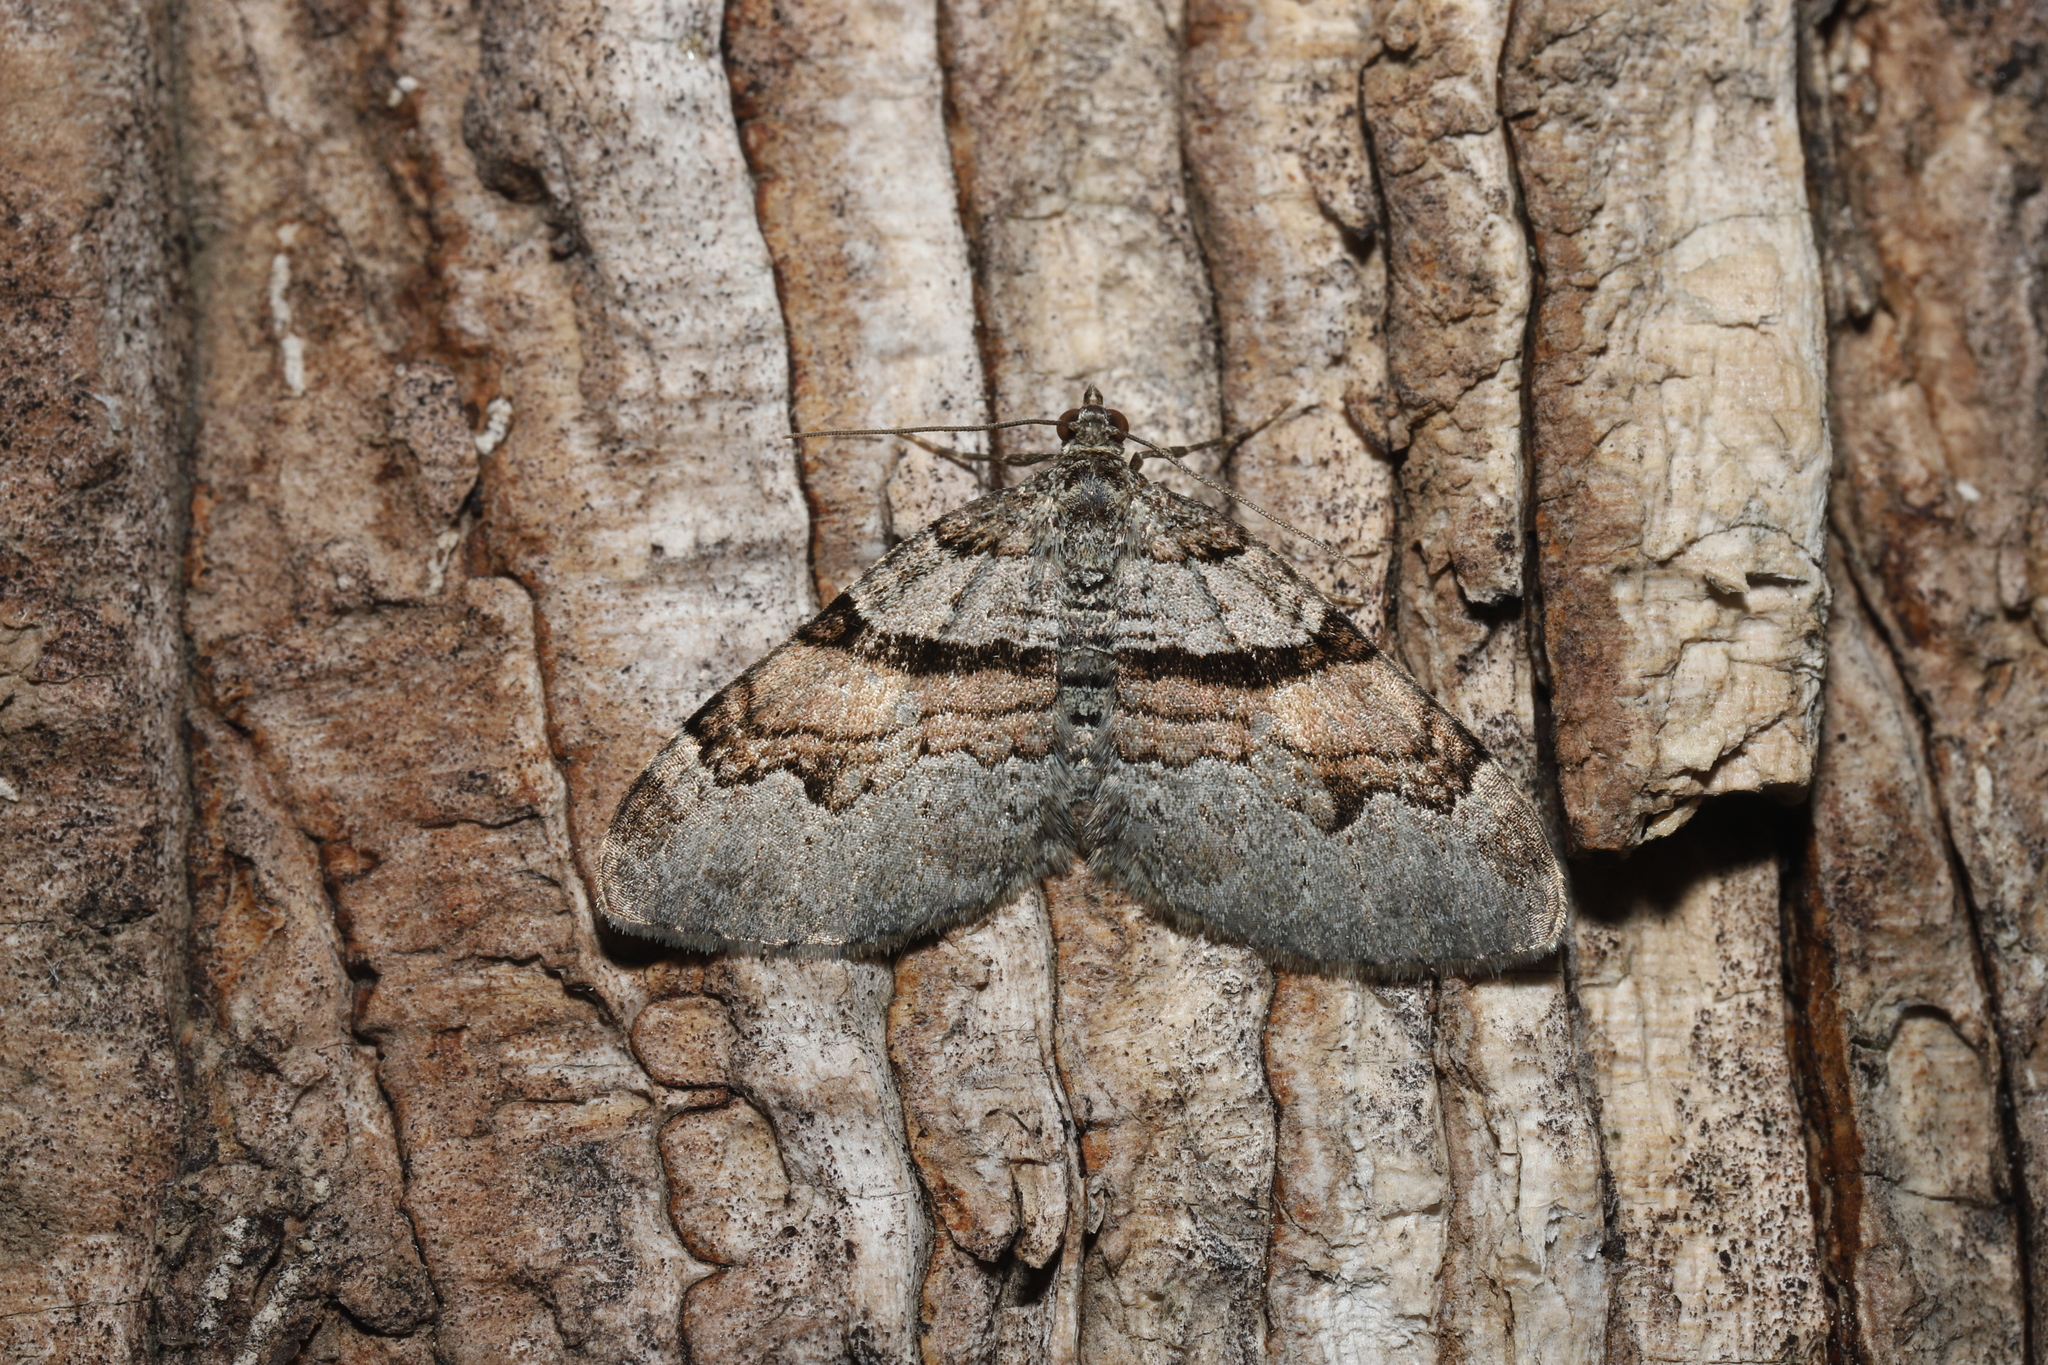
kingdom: Animalia
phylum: Arthropoda
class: Insecta
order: Lepidoptera
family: Geometridae
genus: Xanthorhoe
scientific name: Xanthorhoe labradorensis
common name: Labrador carpet
